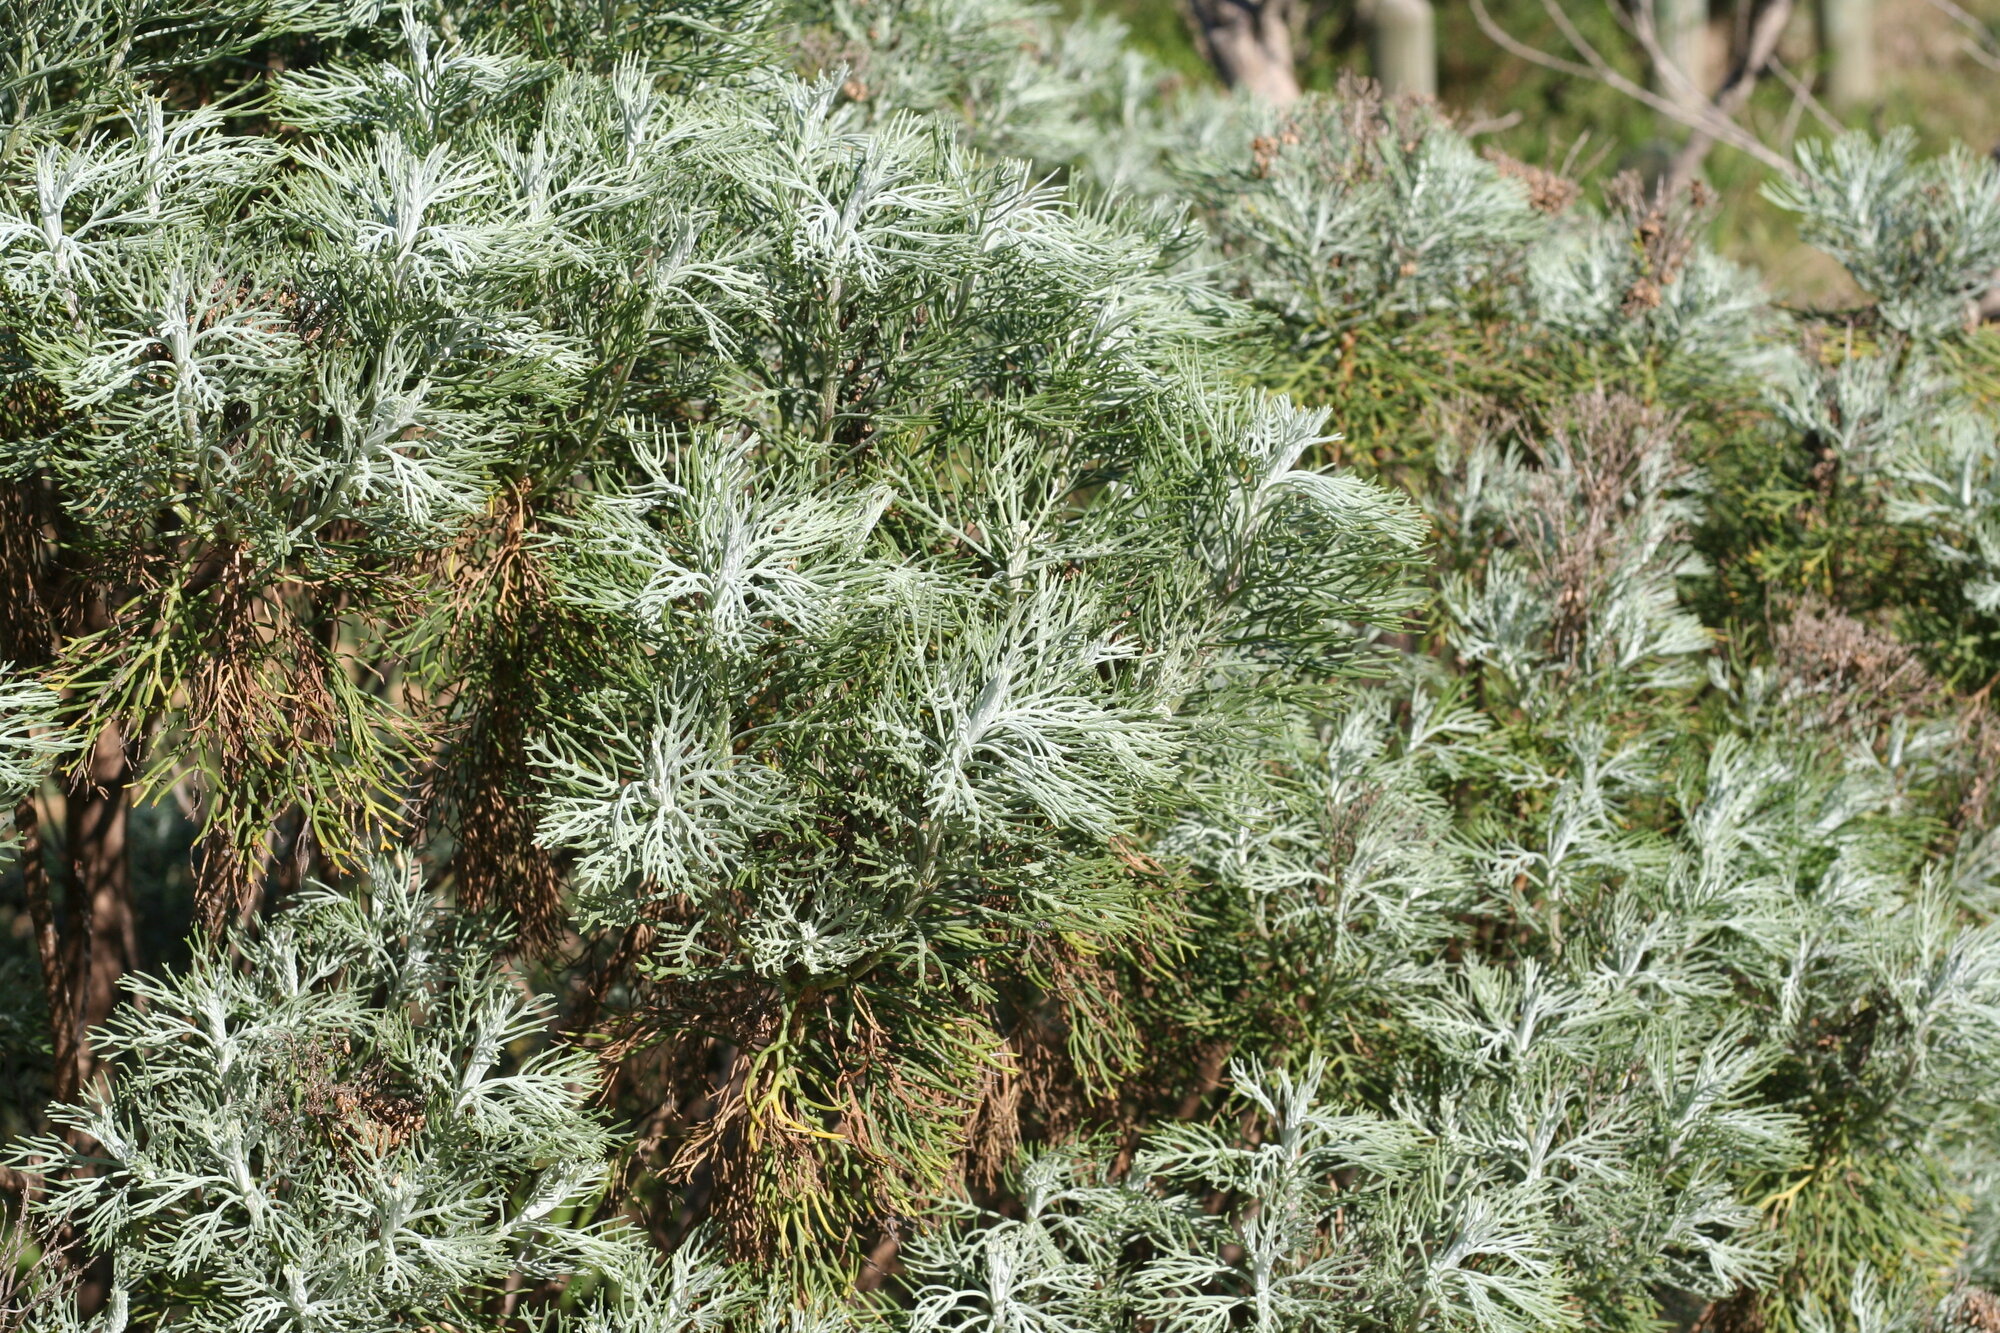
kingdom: Plantae
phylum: Tracheophyta
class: Magnoliopsida
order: Asterales
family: Asteraceae
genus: Hymenolepis
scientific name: Hymenolepis crithmifolia
